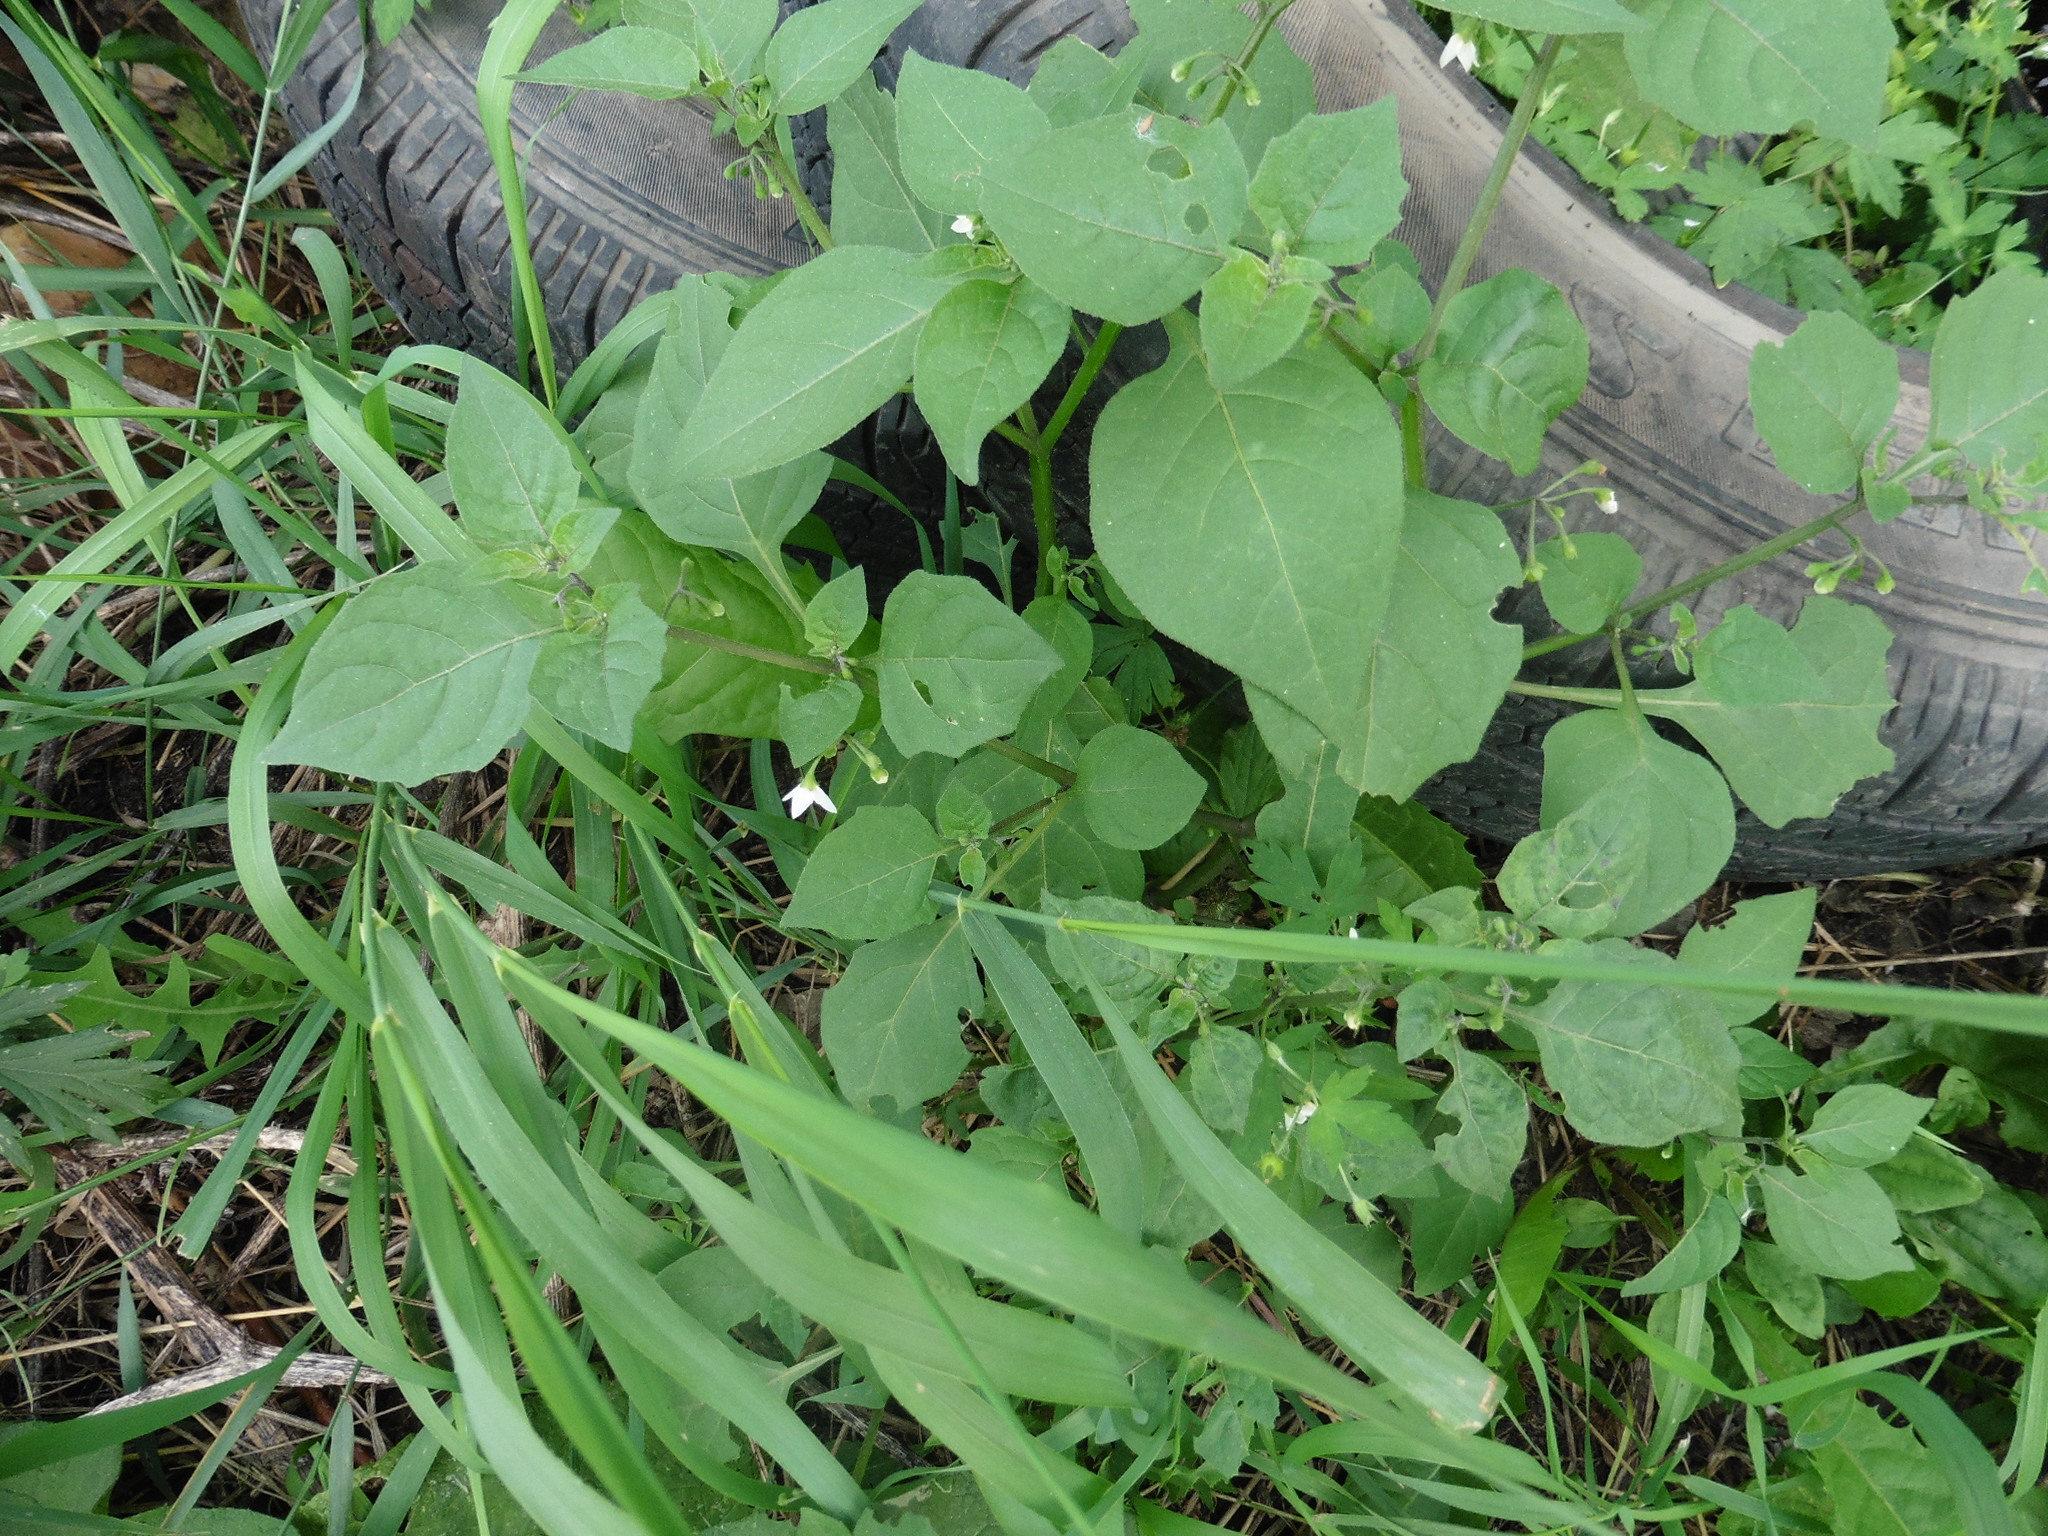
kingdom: Plantae
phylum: Tracheophyta
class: Magnoliopsida
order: Solanales
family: Solanaceae
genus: Solanum
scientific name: Solanum nigrum
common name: Black nightshade
